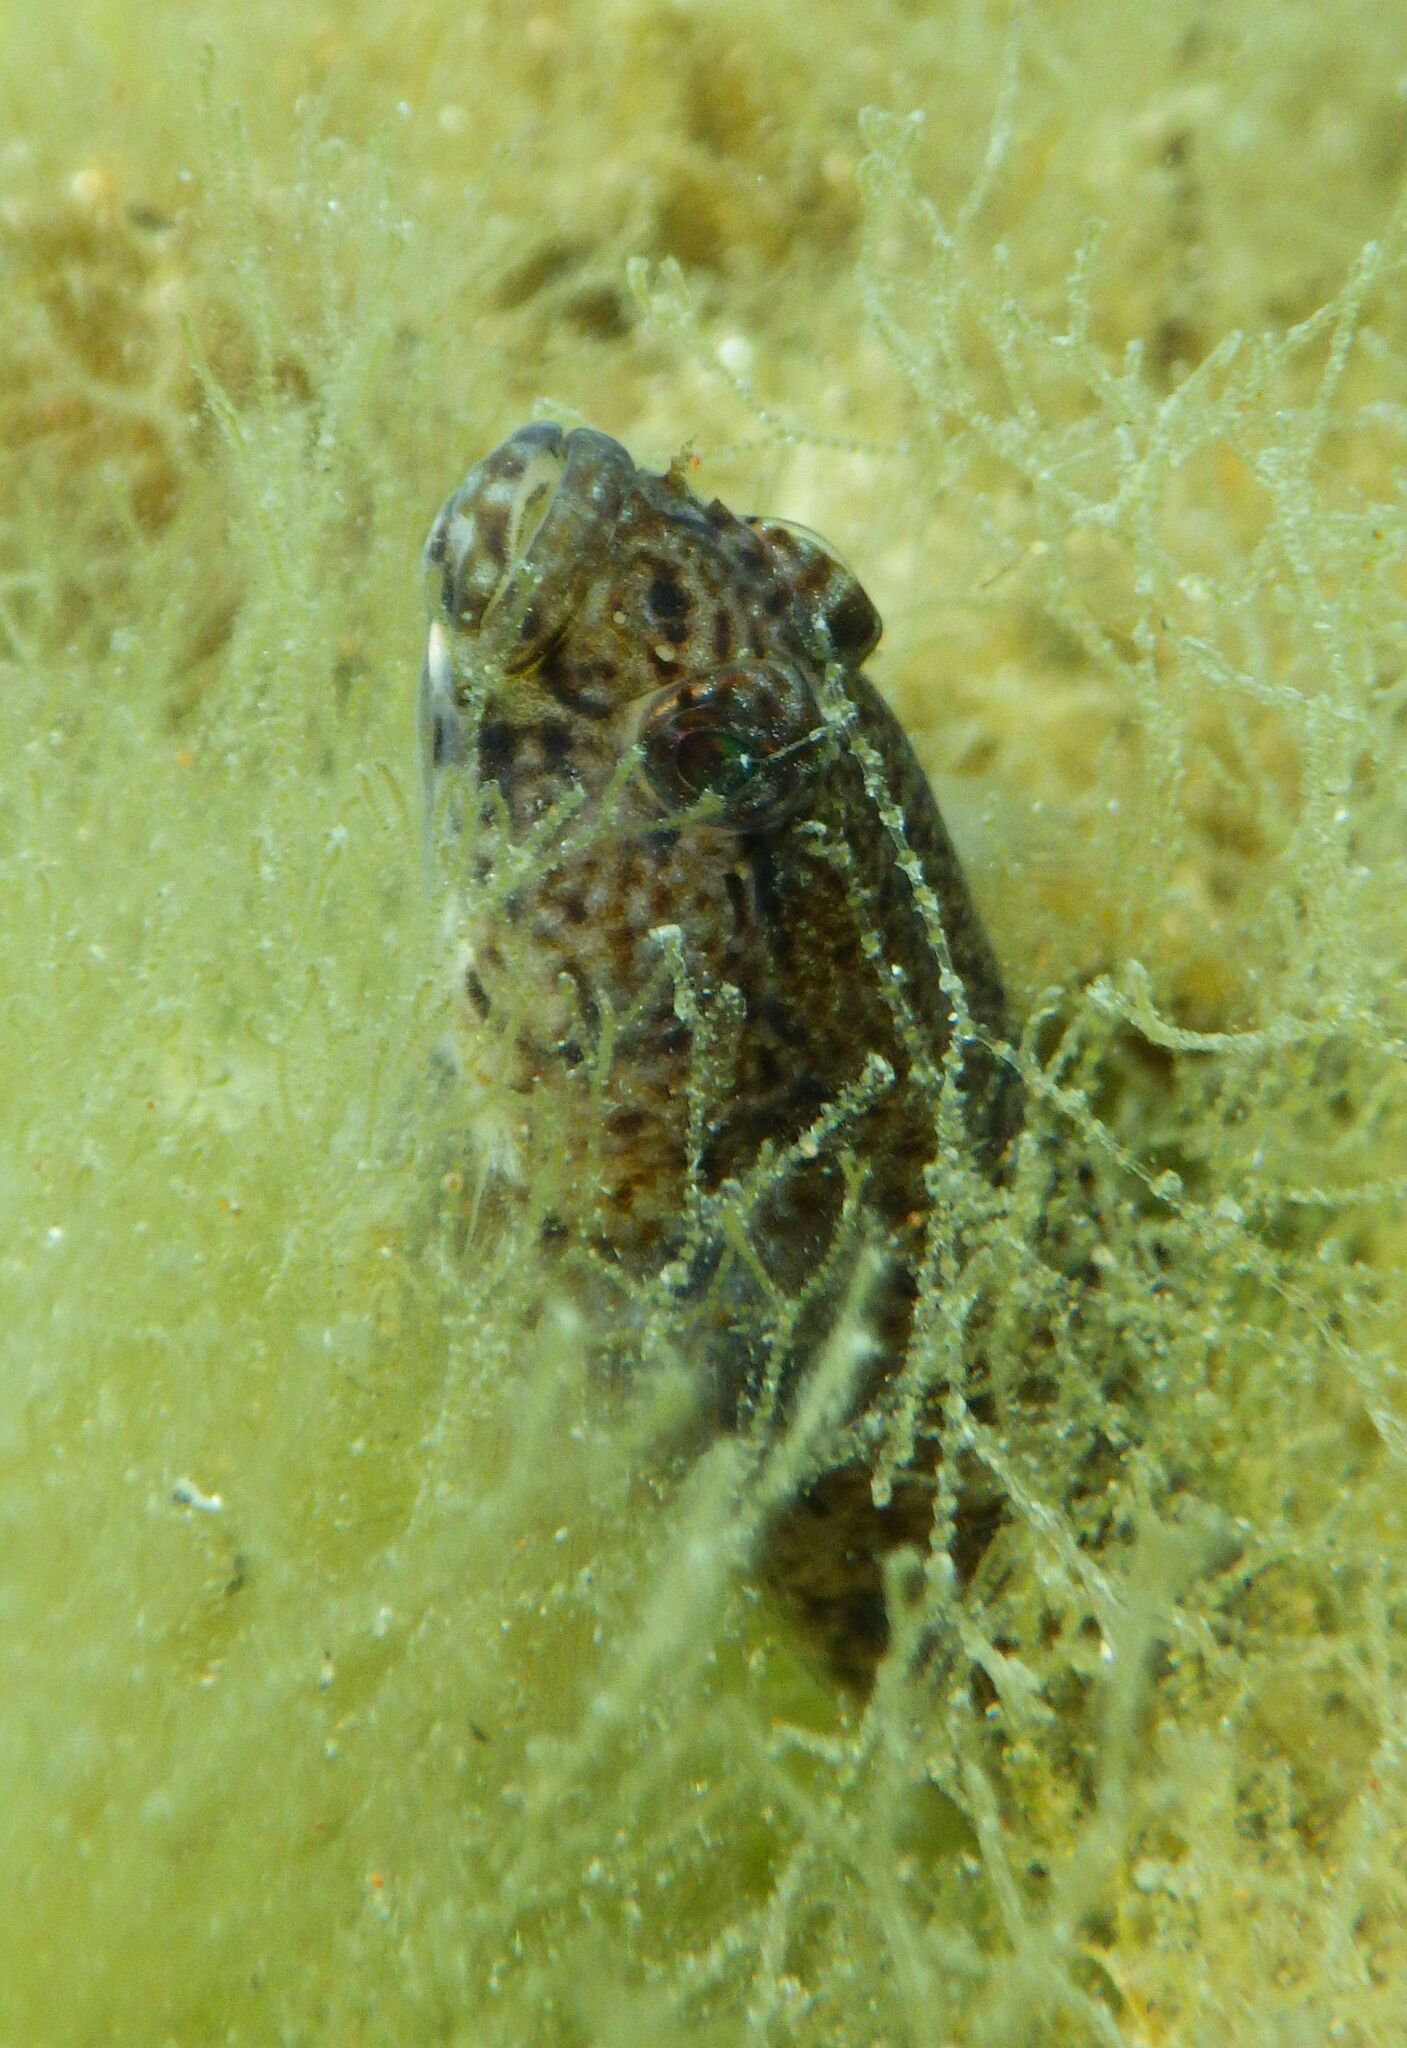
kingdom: Animalia
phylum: Chordata
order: Perciformes
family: Gobiidae
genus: Gobius
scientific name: Gobius incognitus
